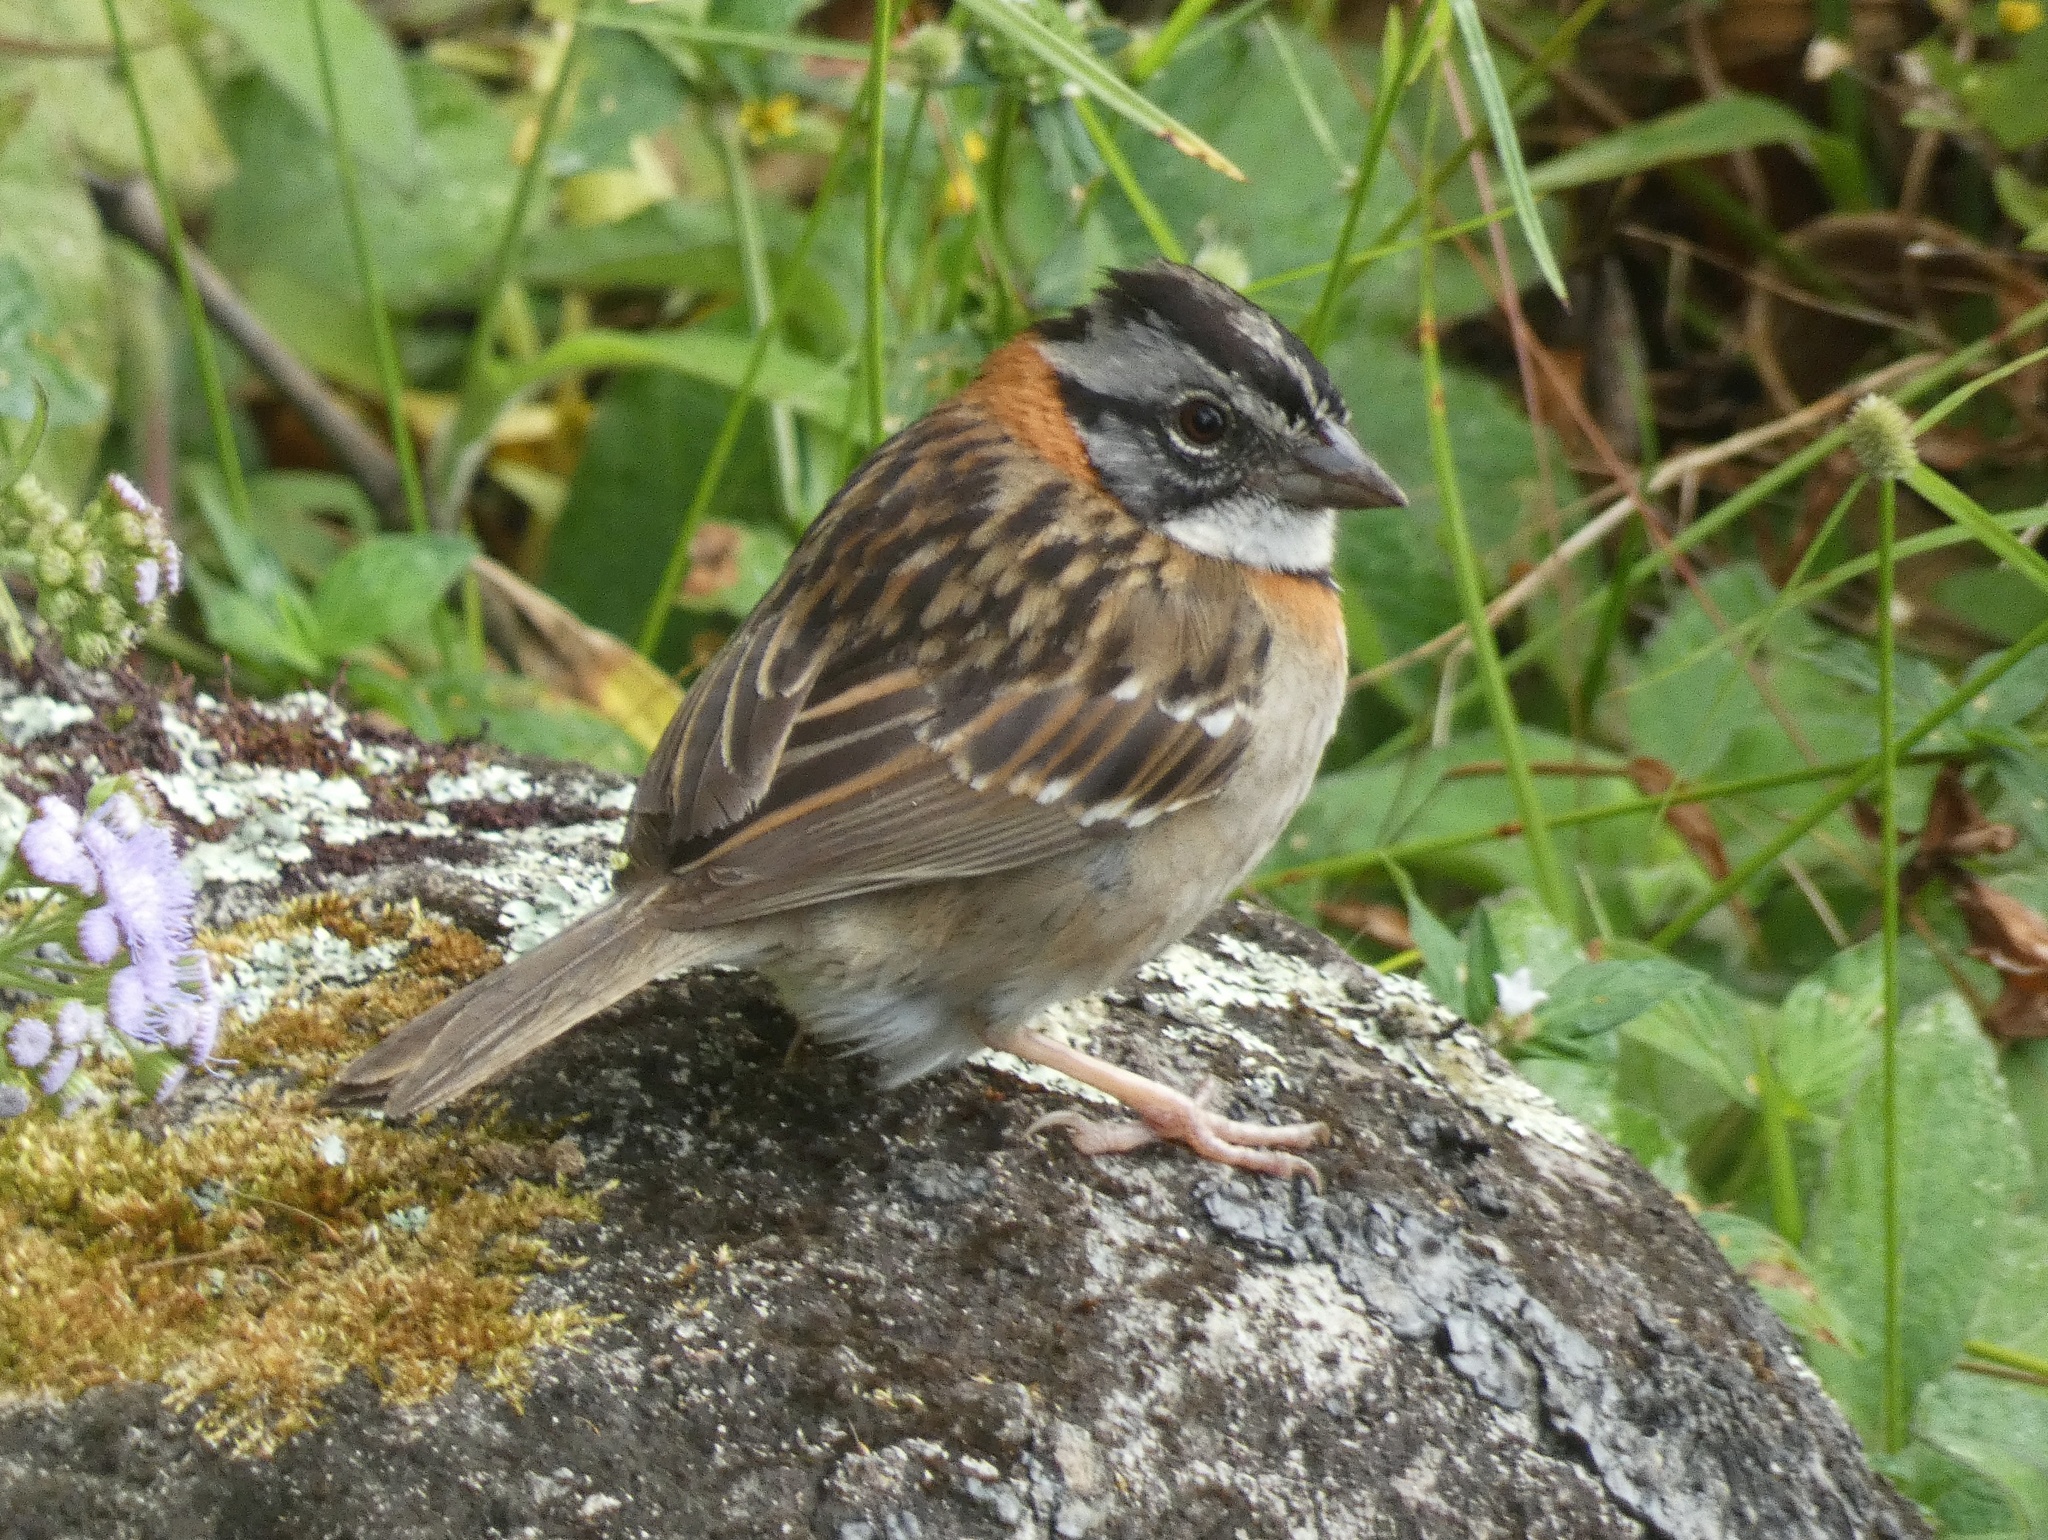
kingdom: Animalia
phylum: Chordata
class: Aves
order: Passeriformes
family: Passerellidae
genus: Zonotrichia
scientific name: Zonotrichia capensis
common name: Rufous-collared sparrow
